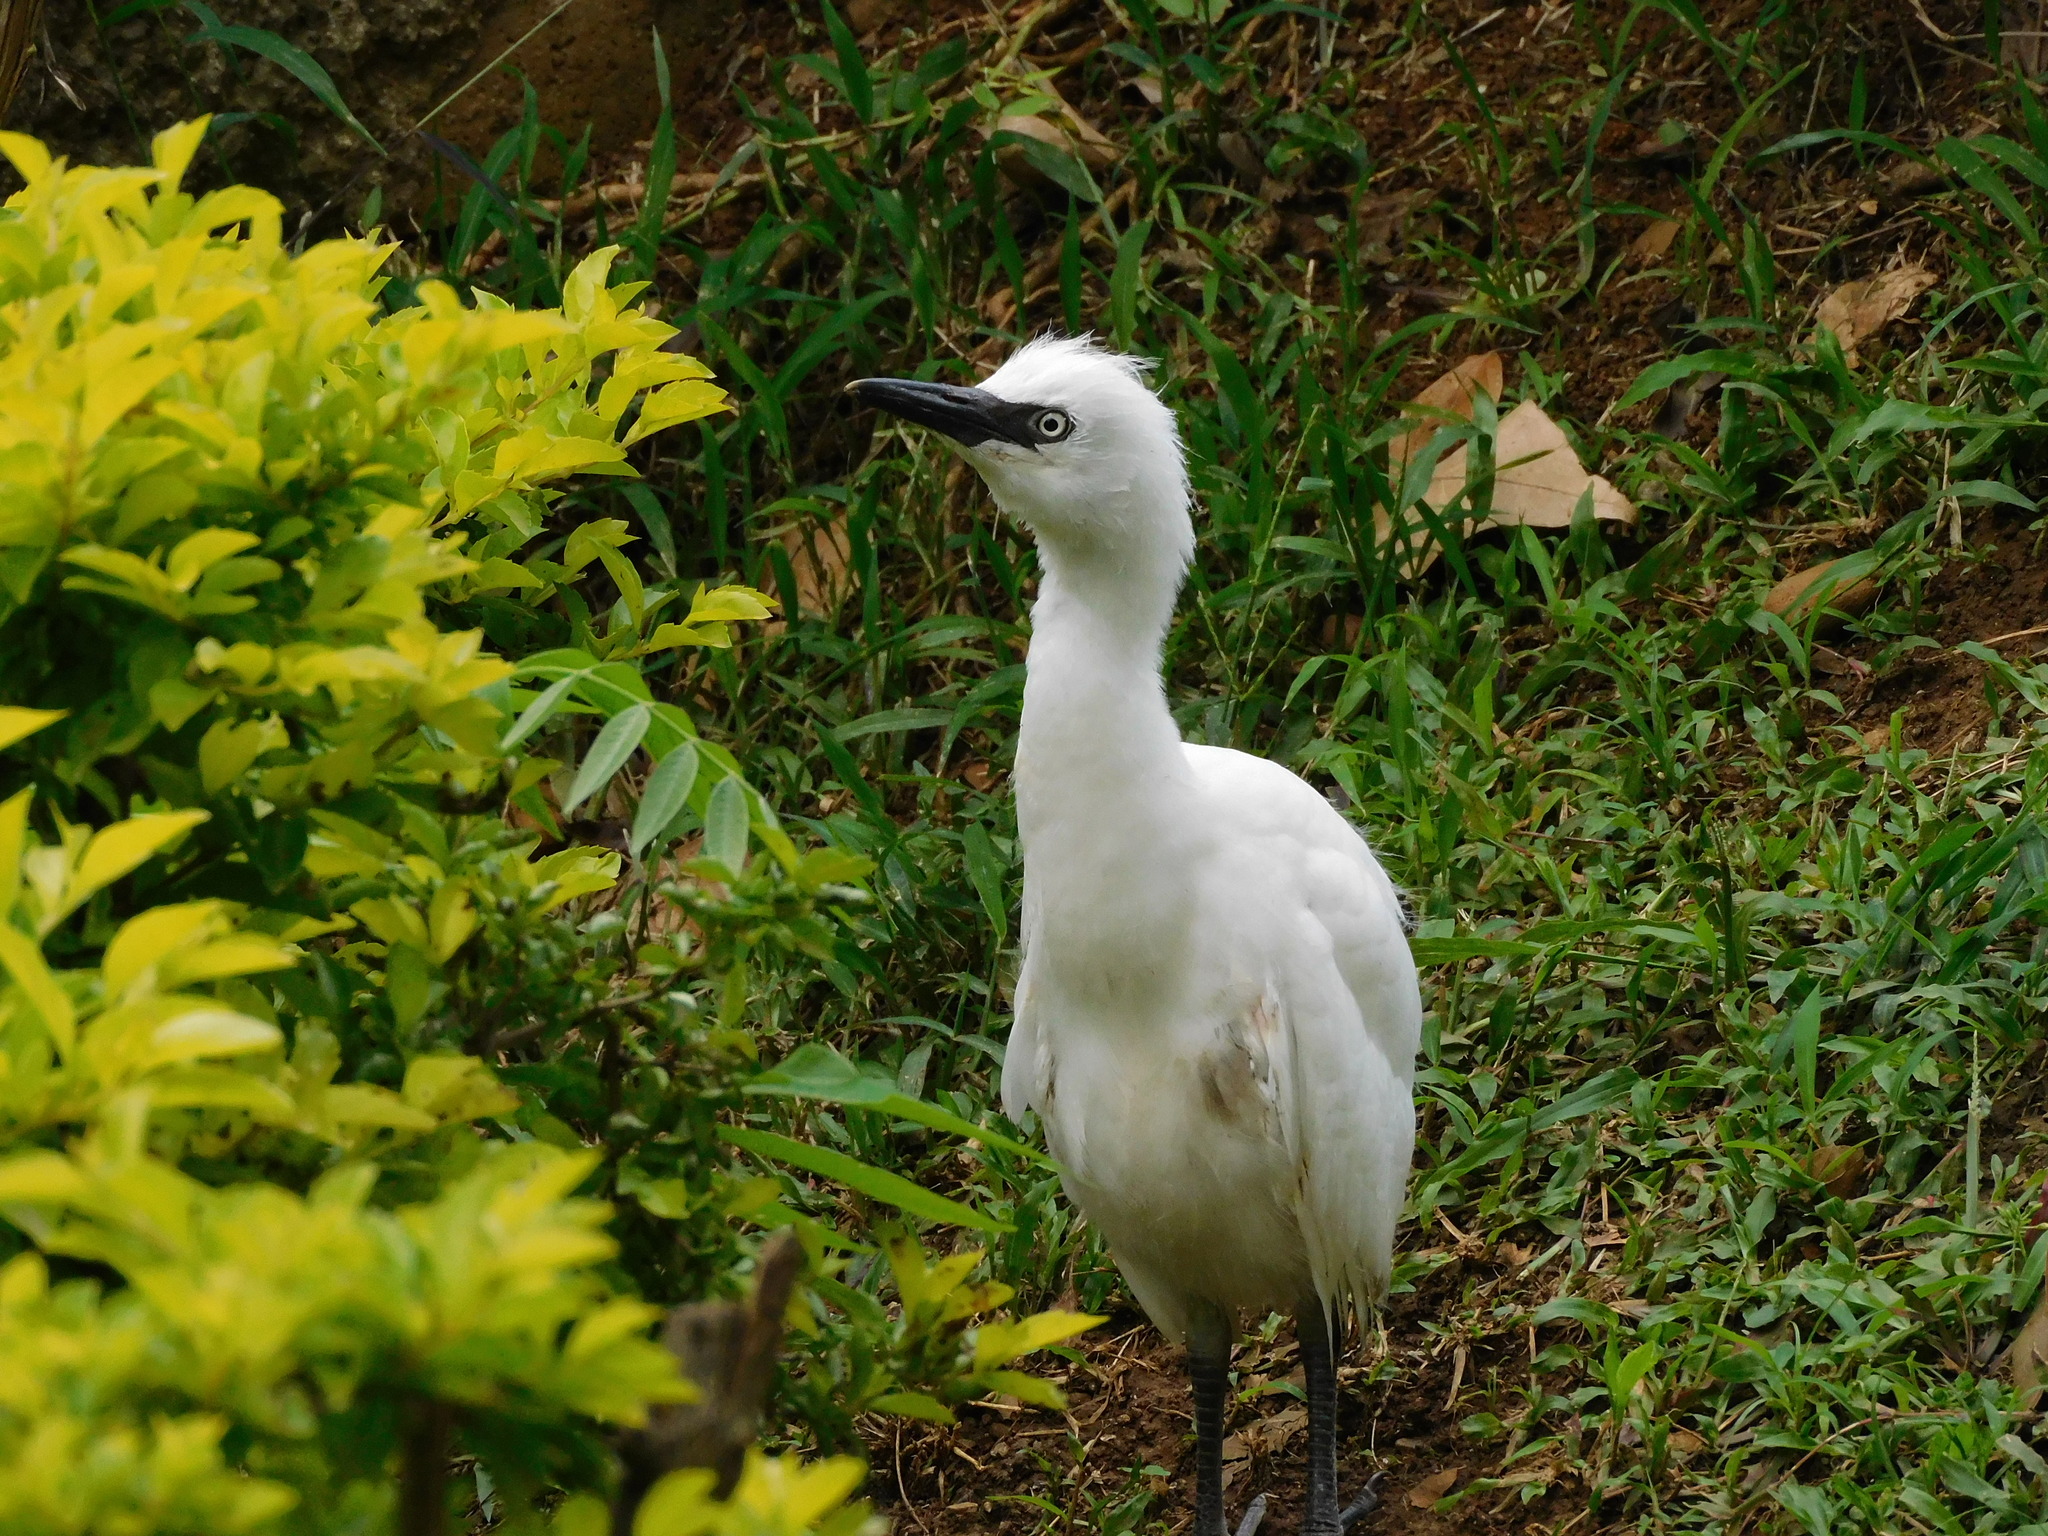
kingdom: Animalia
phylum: Chordata
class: Aves
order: Pelecaniformes
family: Ardeidae
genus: Bubulcus
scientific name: Bubulcus ibis
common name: Cattle egret
